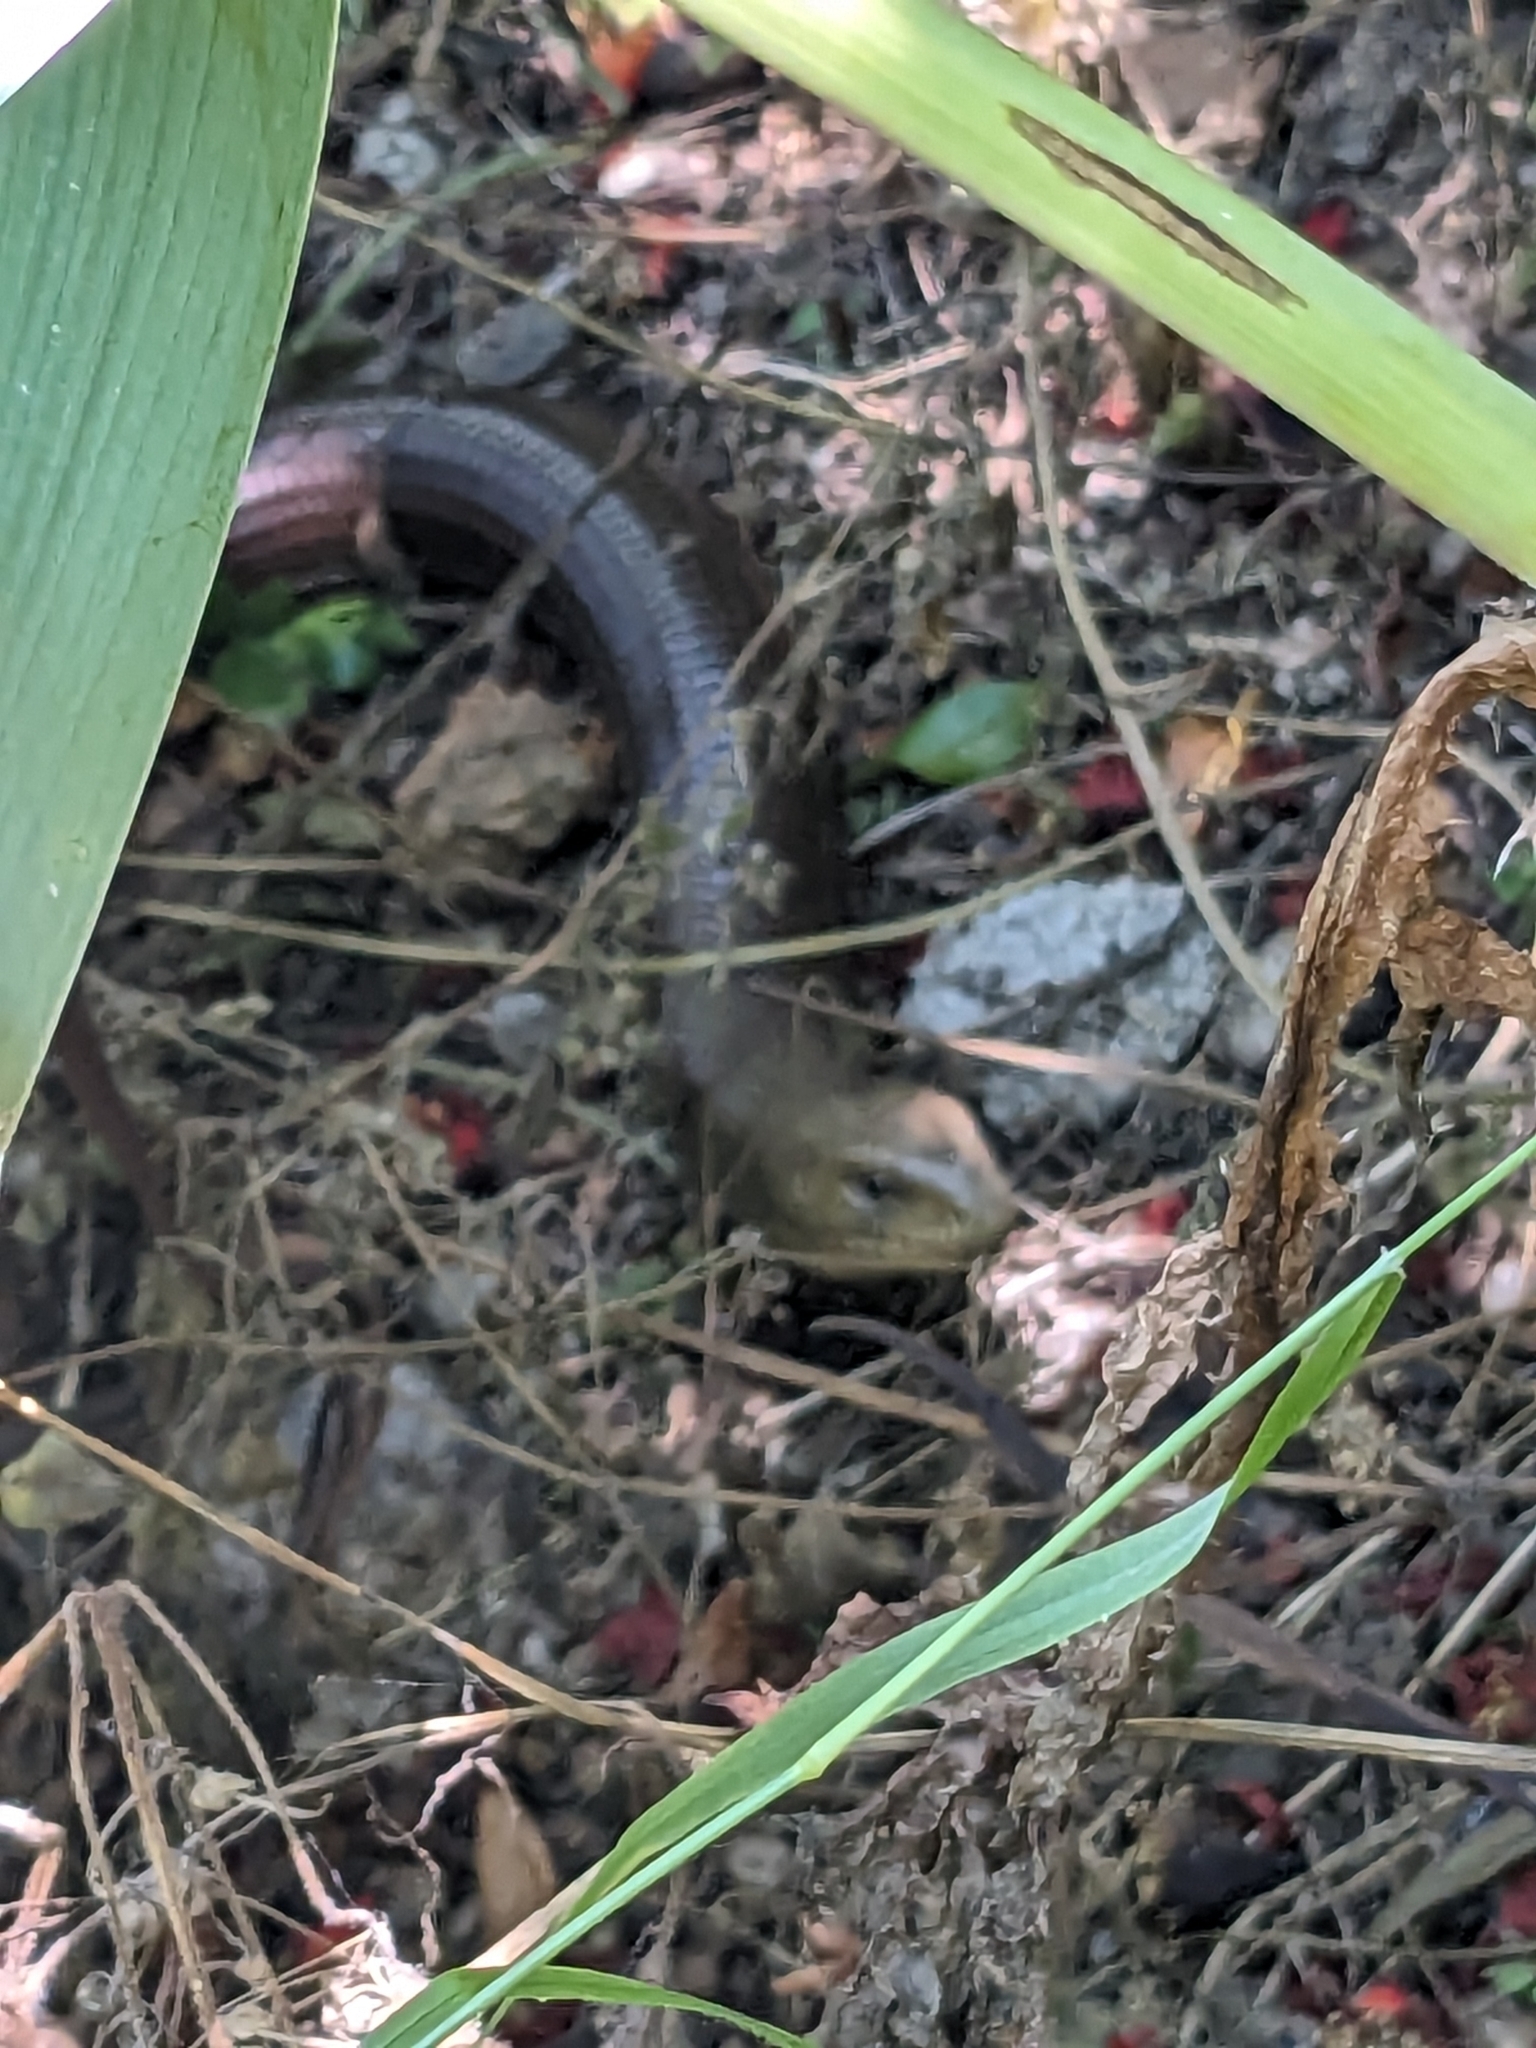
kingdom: Animalia
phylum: Chordata
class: Squamata
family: Anguidae
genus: Pseudopus
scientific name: Pseudopus apodus
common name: European glass lizard
